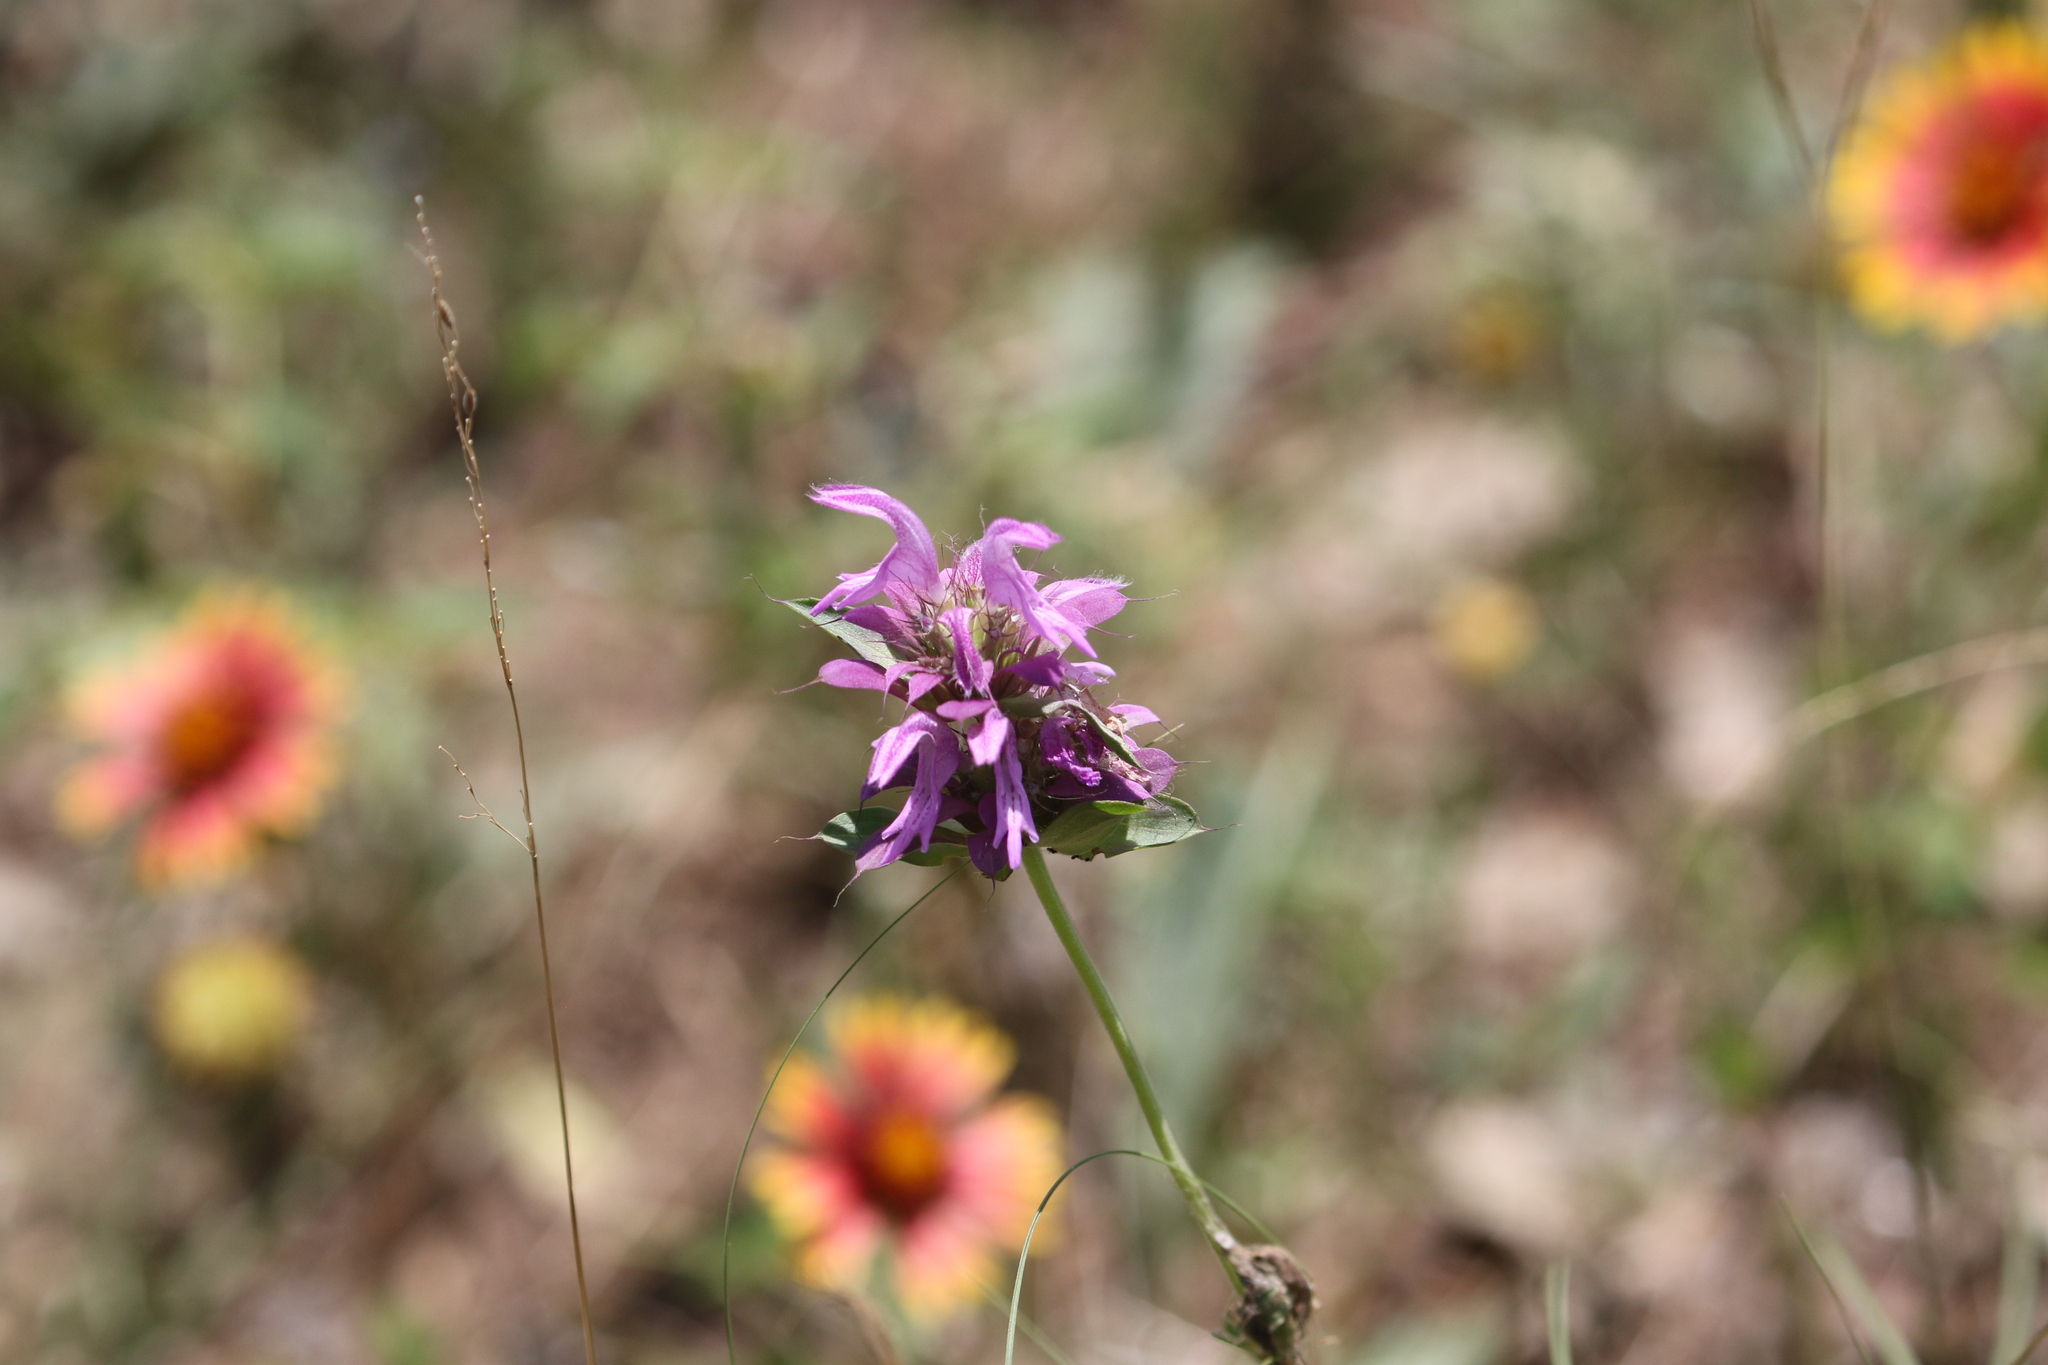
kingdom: Plantae
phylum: Tracheophyta
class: Magnoliopsida
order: Lamiales
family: Lamiaceae
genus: Monarda
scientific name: Monarda citriodora
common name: Lemon beebalm
